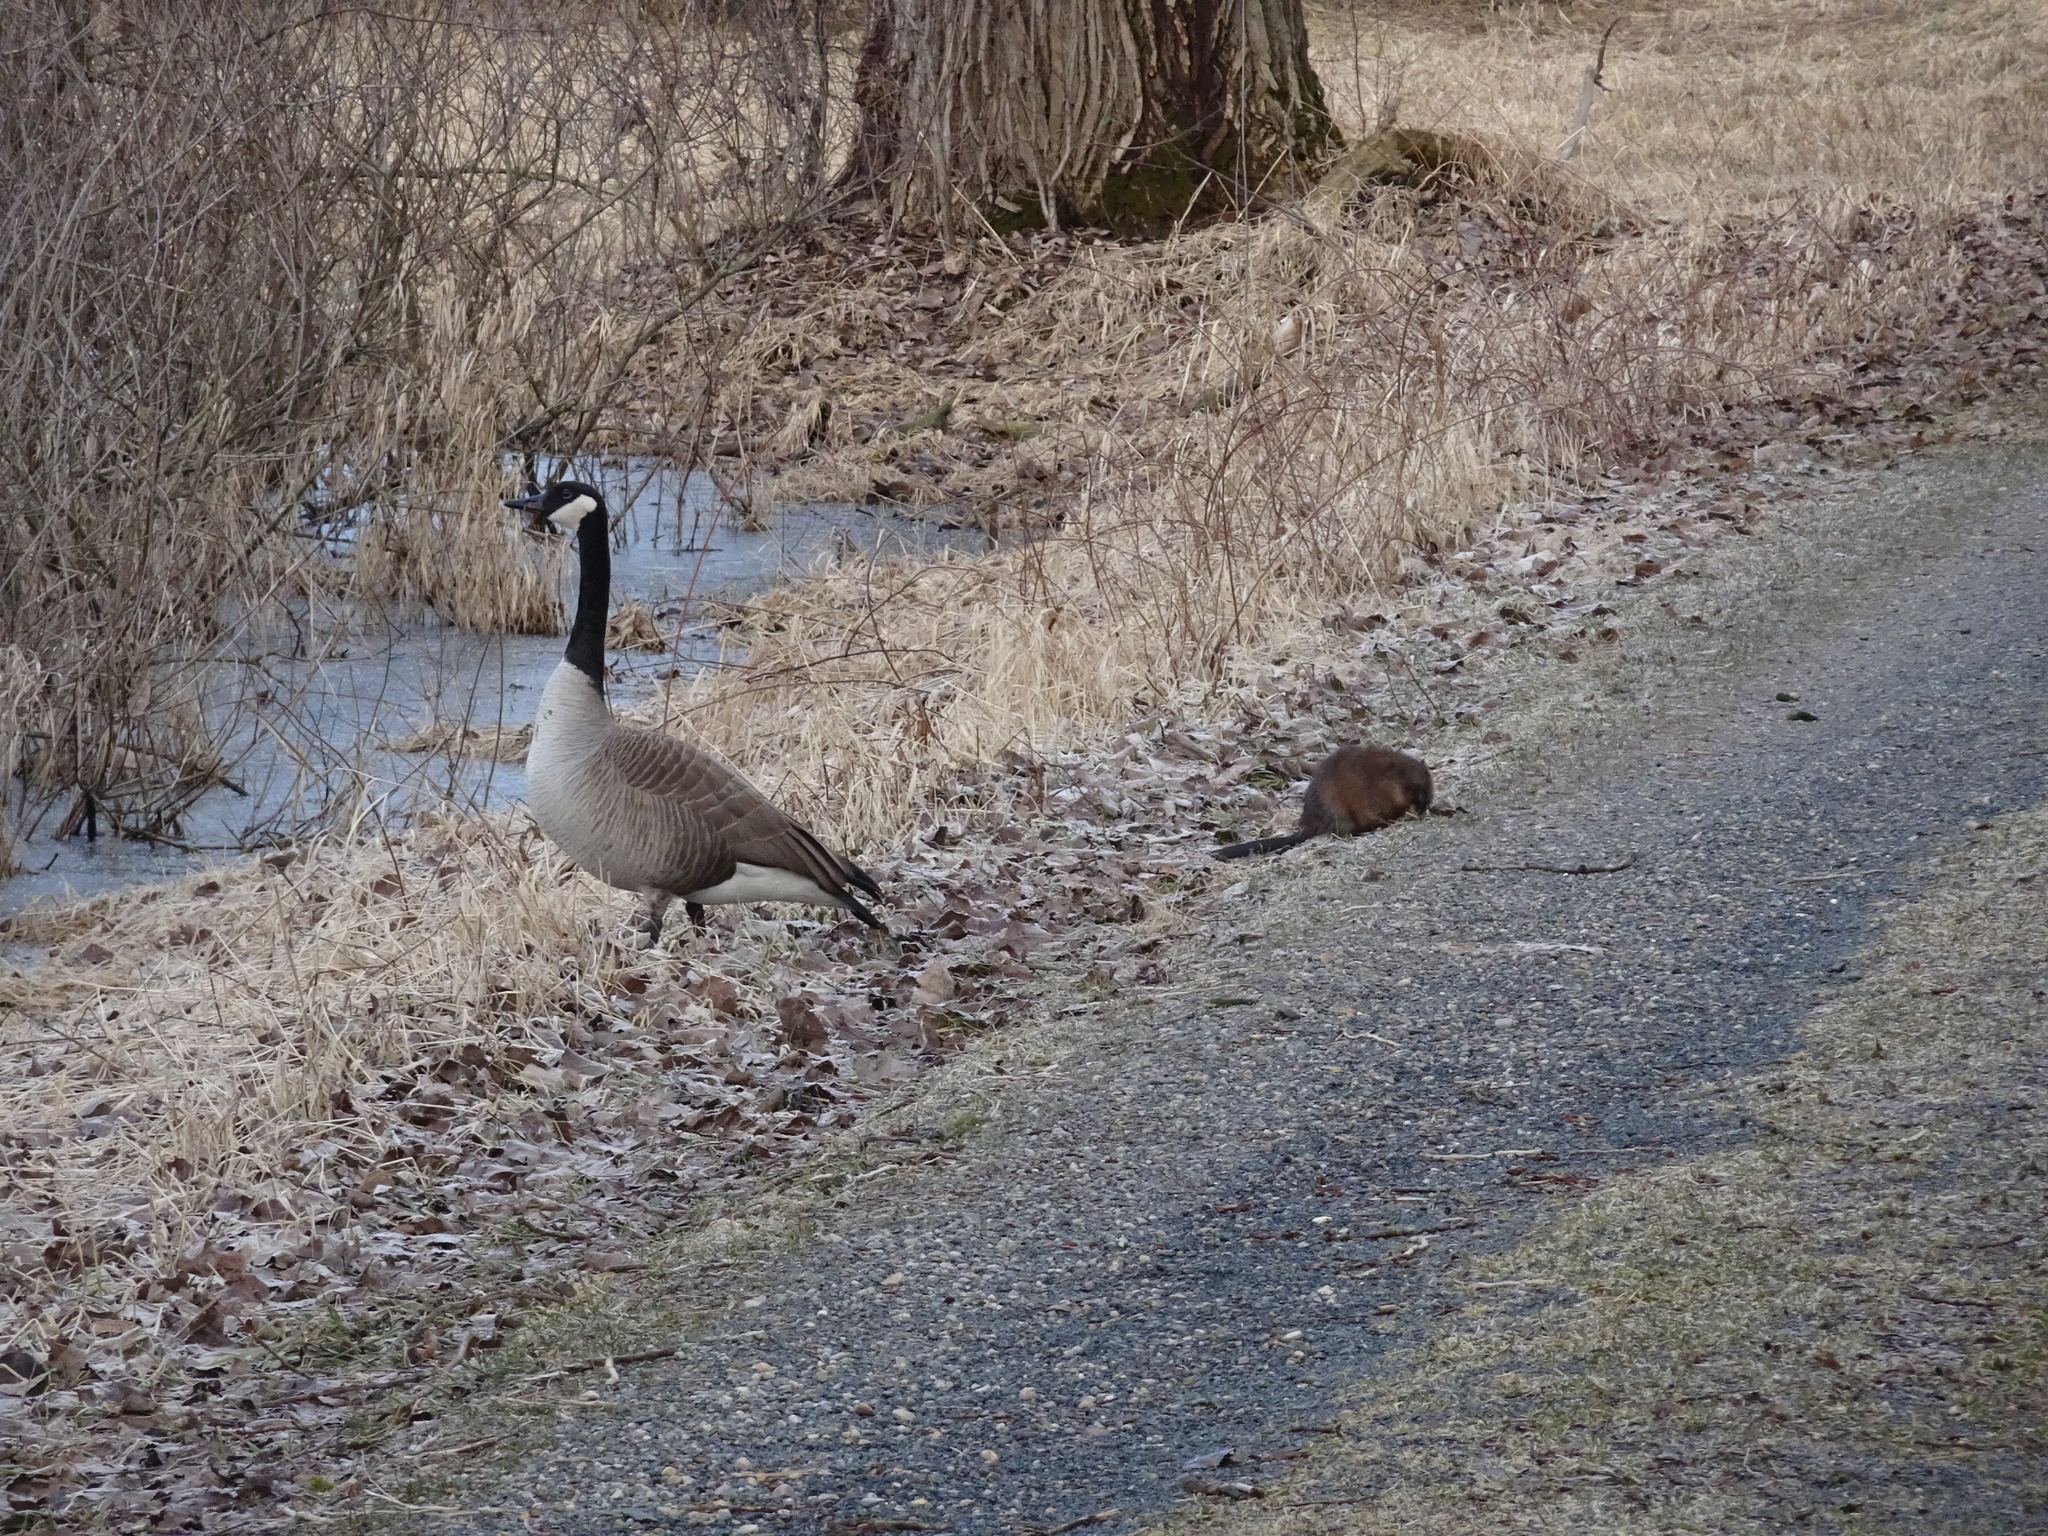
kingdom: Animalia
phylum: Chordata
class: Aves
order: Anseriformes
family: Anatidae
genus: Branta
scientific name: Branta canadensis
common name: Canada goose
